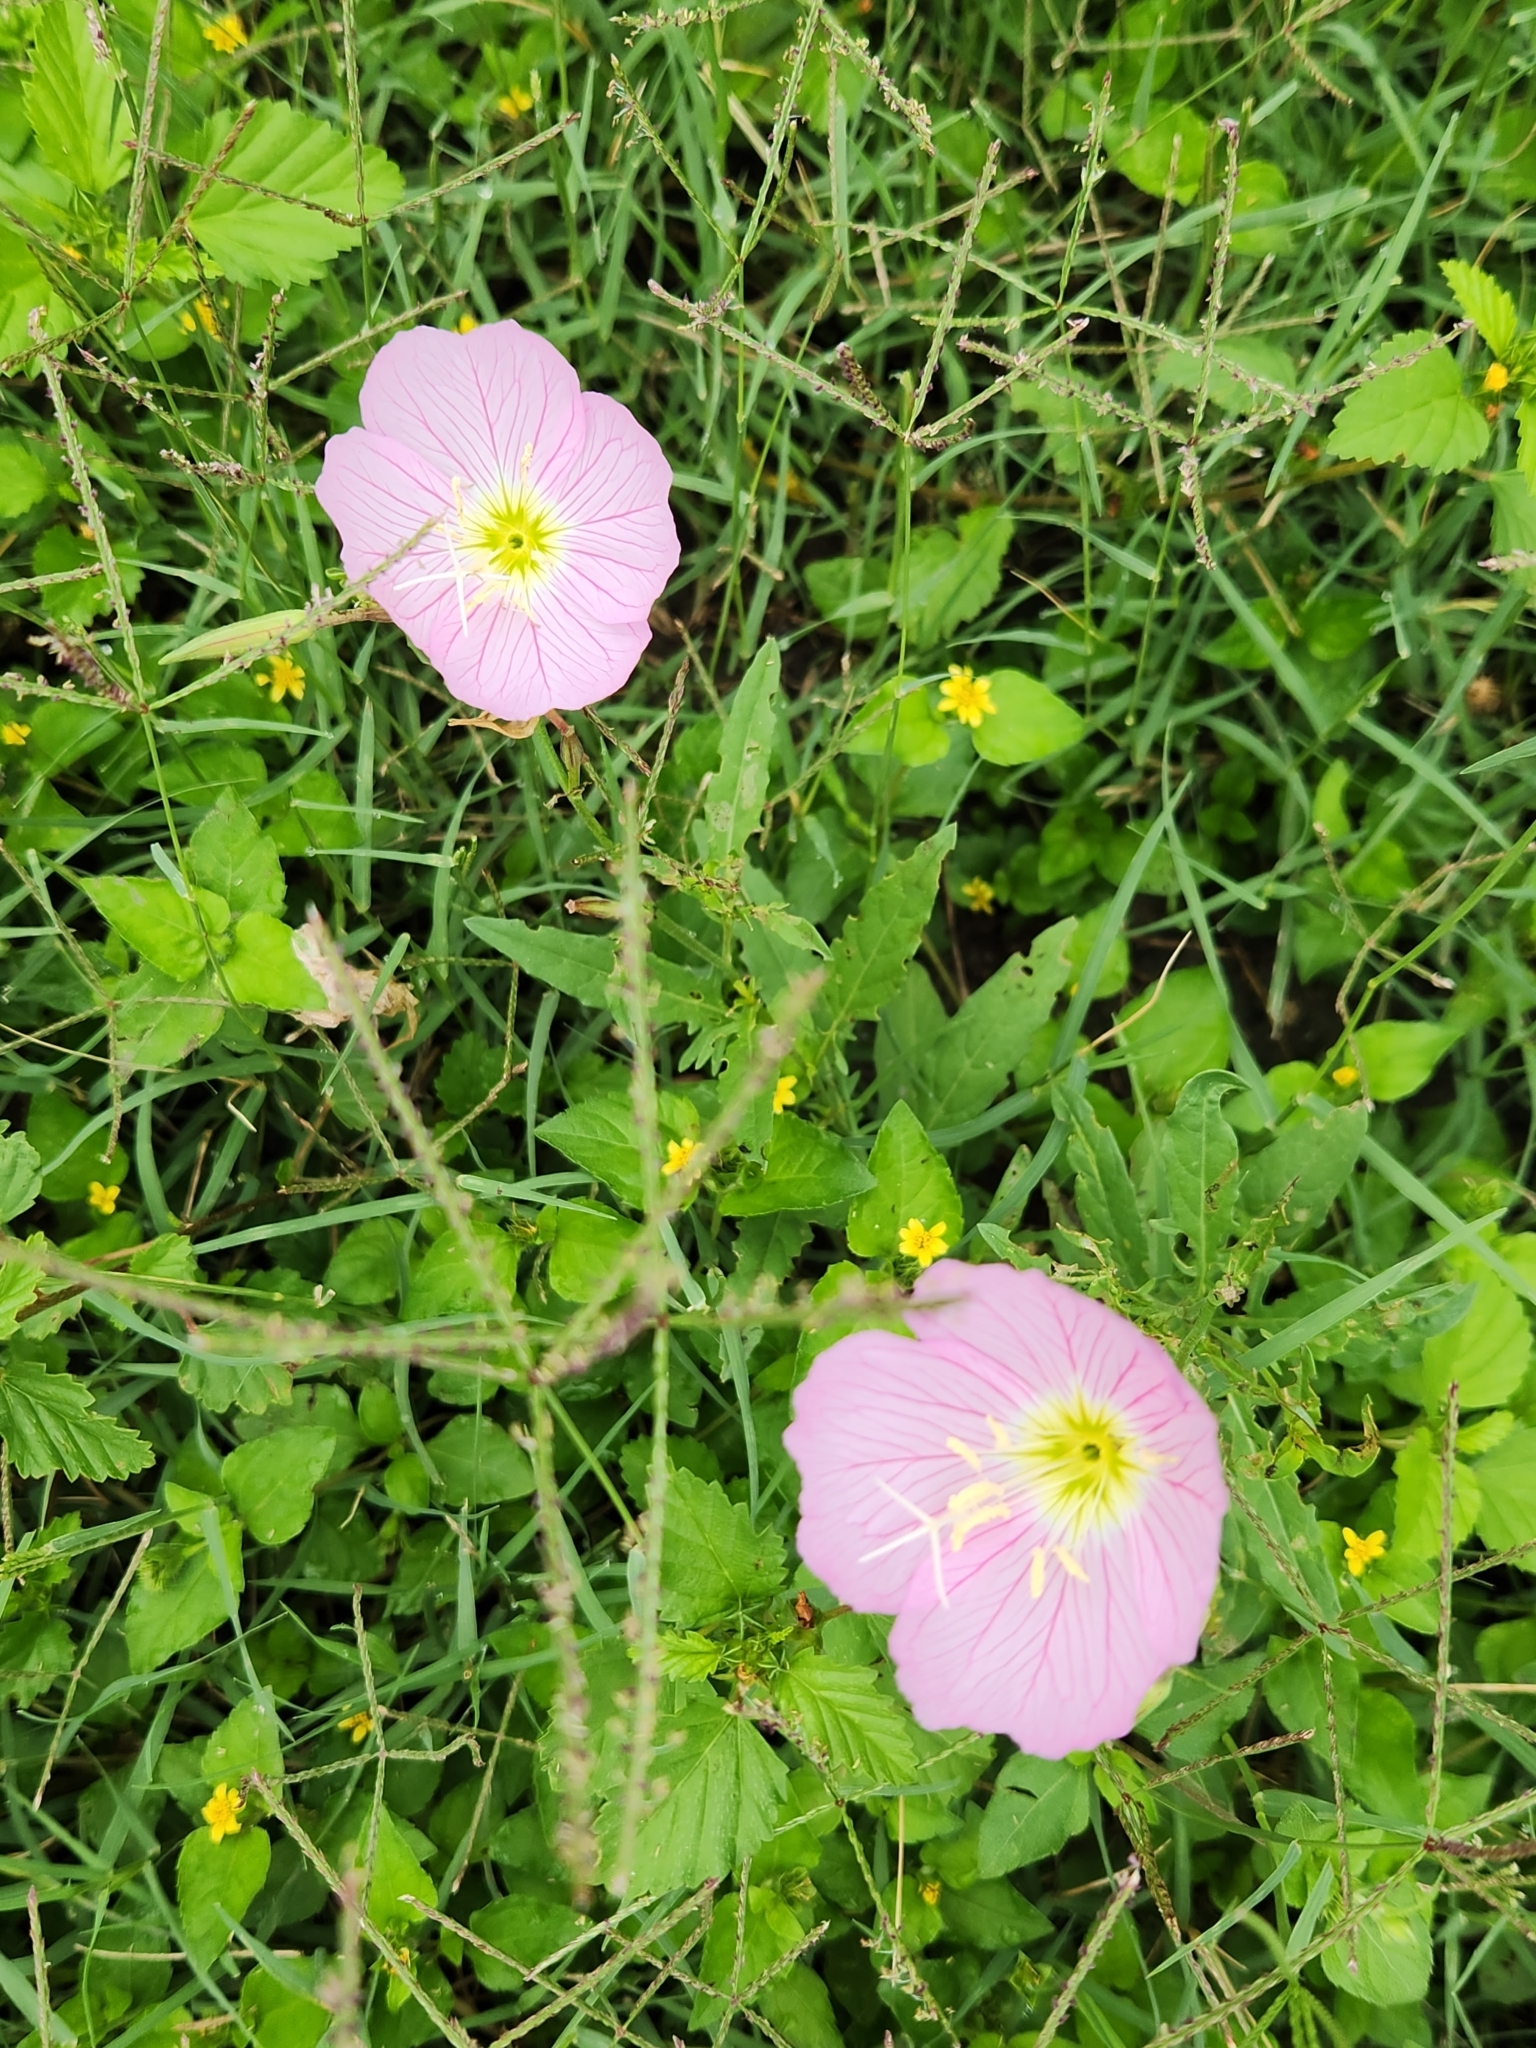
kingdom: Plantae
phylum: Tracheophyta
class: Magnoliopsida
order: Myrtales
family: Onagraceae
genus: Oenothera
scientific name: Oenothera speciosa
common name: White evening-primrose
